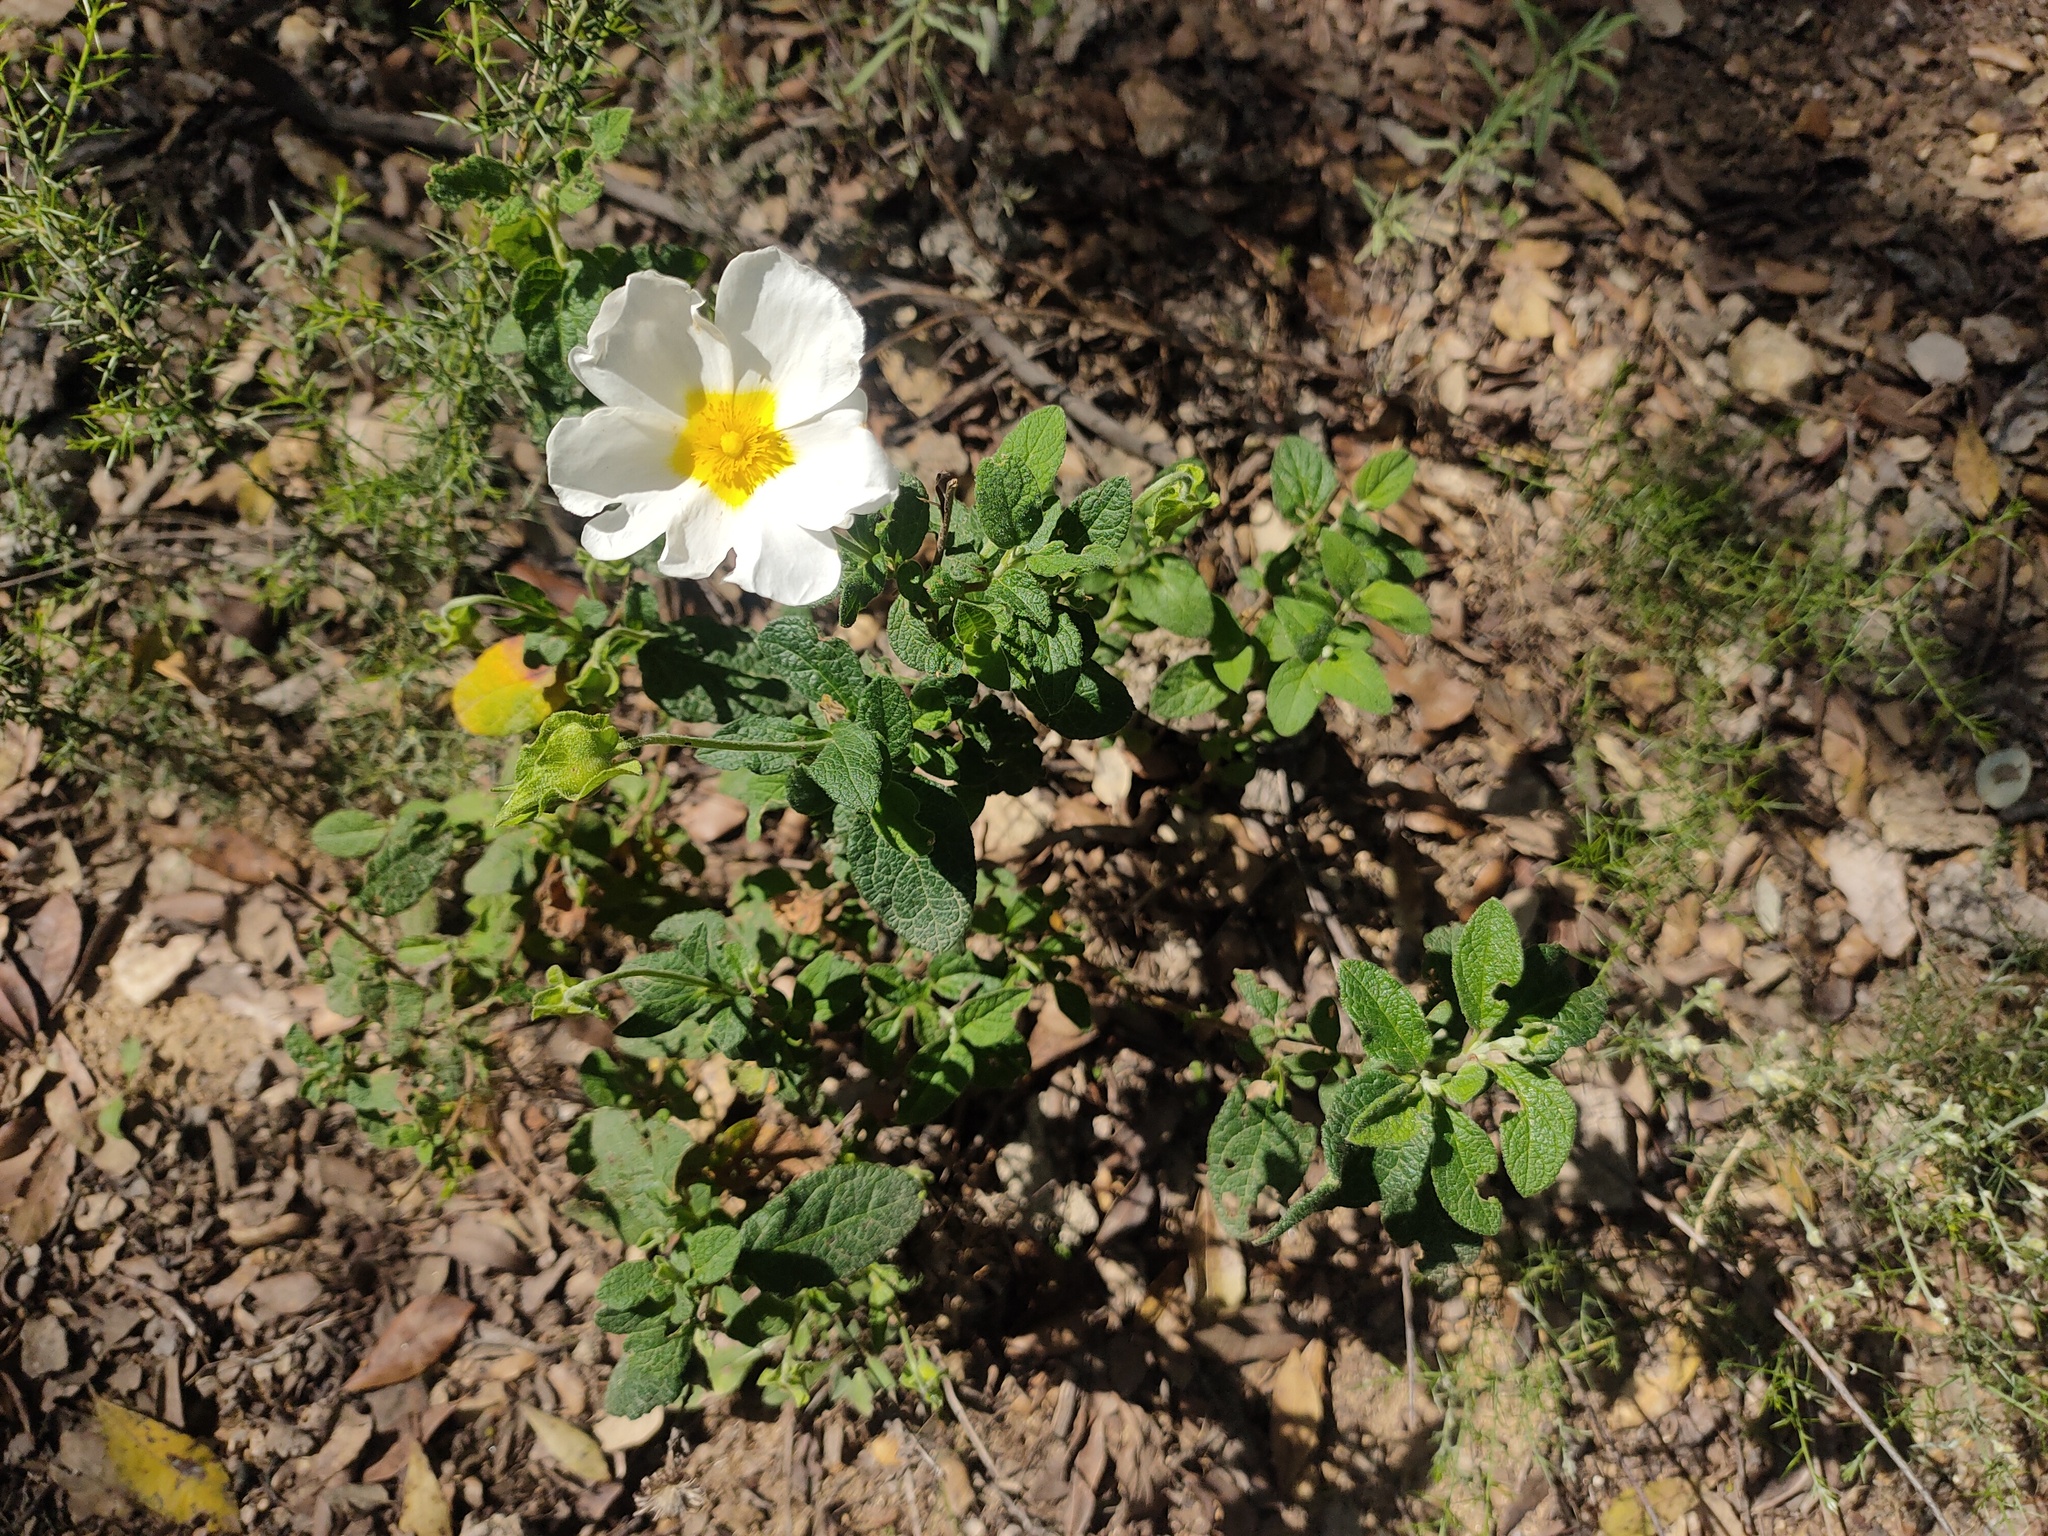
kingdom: Plantae
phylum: Tracheophyta
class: Magnoliopsida
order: Malvales
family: Cistaceae
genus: Cistus
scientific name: Cistus salviifolius
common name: Salvia cistus
